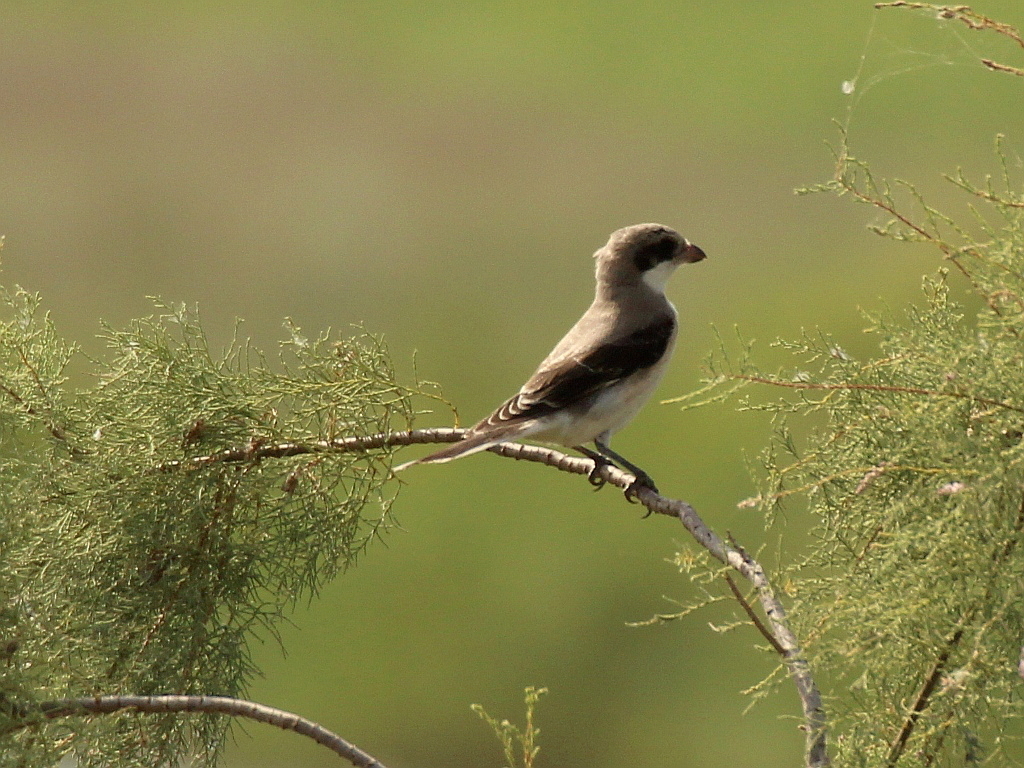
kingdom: Animalia
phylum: Chordata
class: Aves
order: Passeriformes
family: Laniidae
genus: Lanius
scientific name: Lanius minor
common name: Lesser grey shrike
